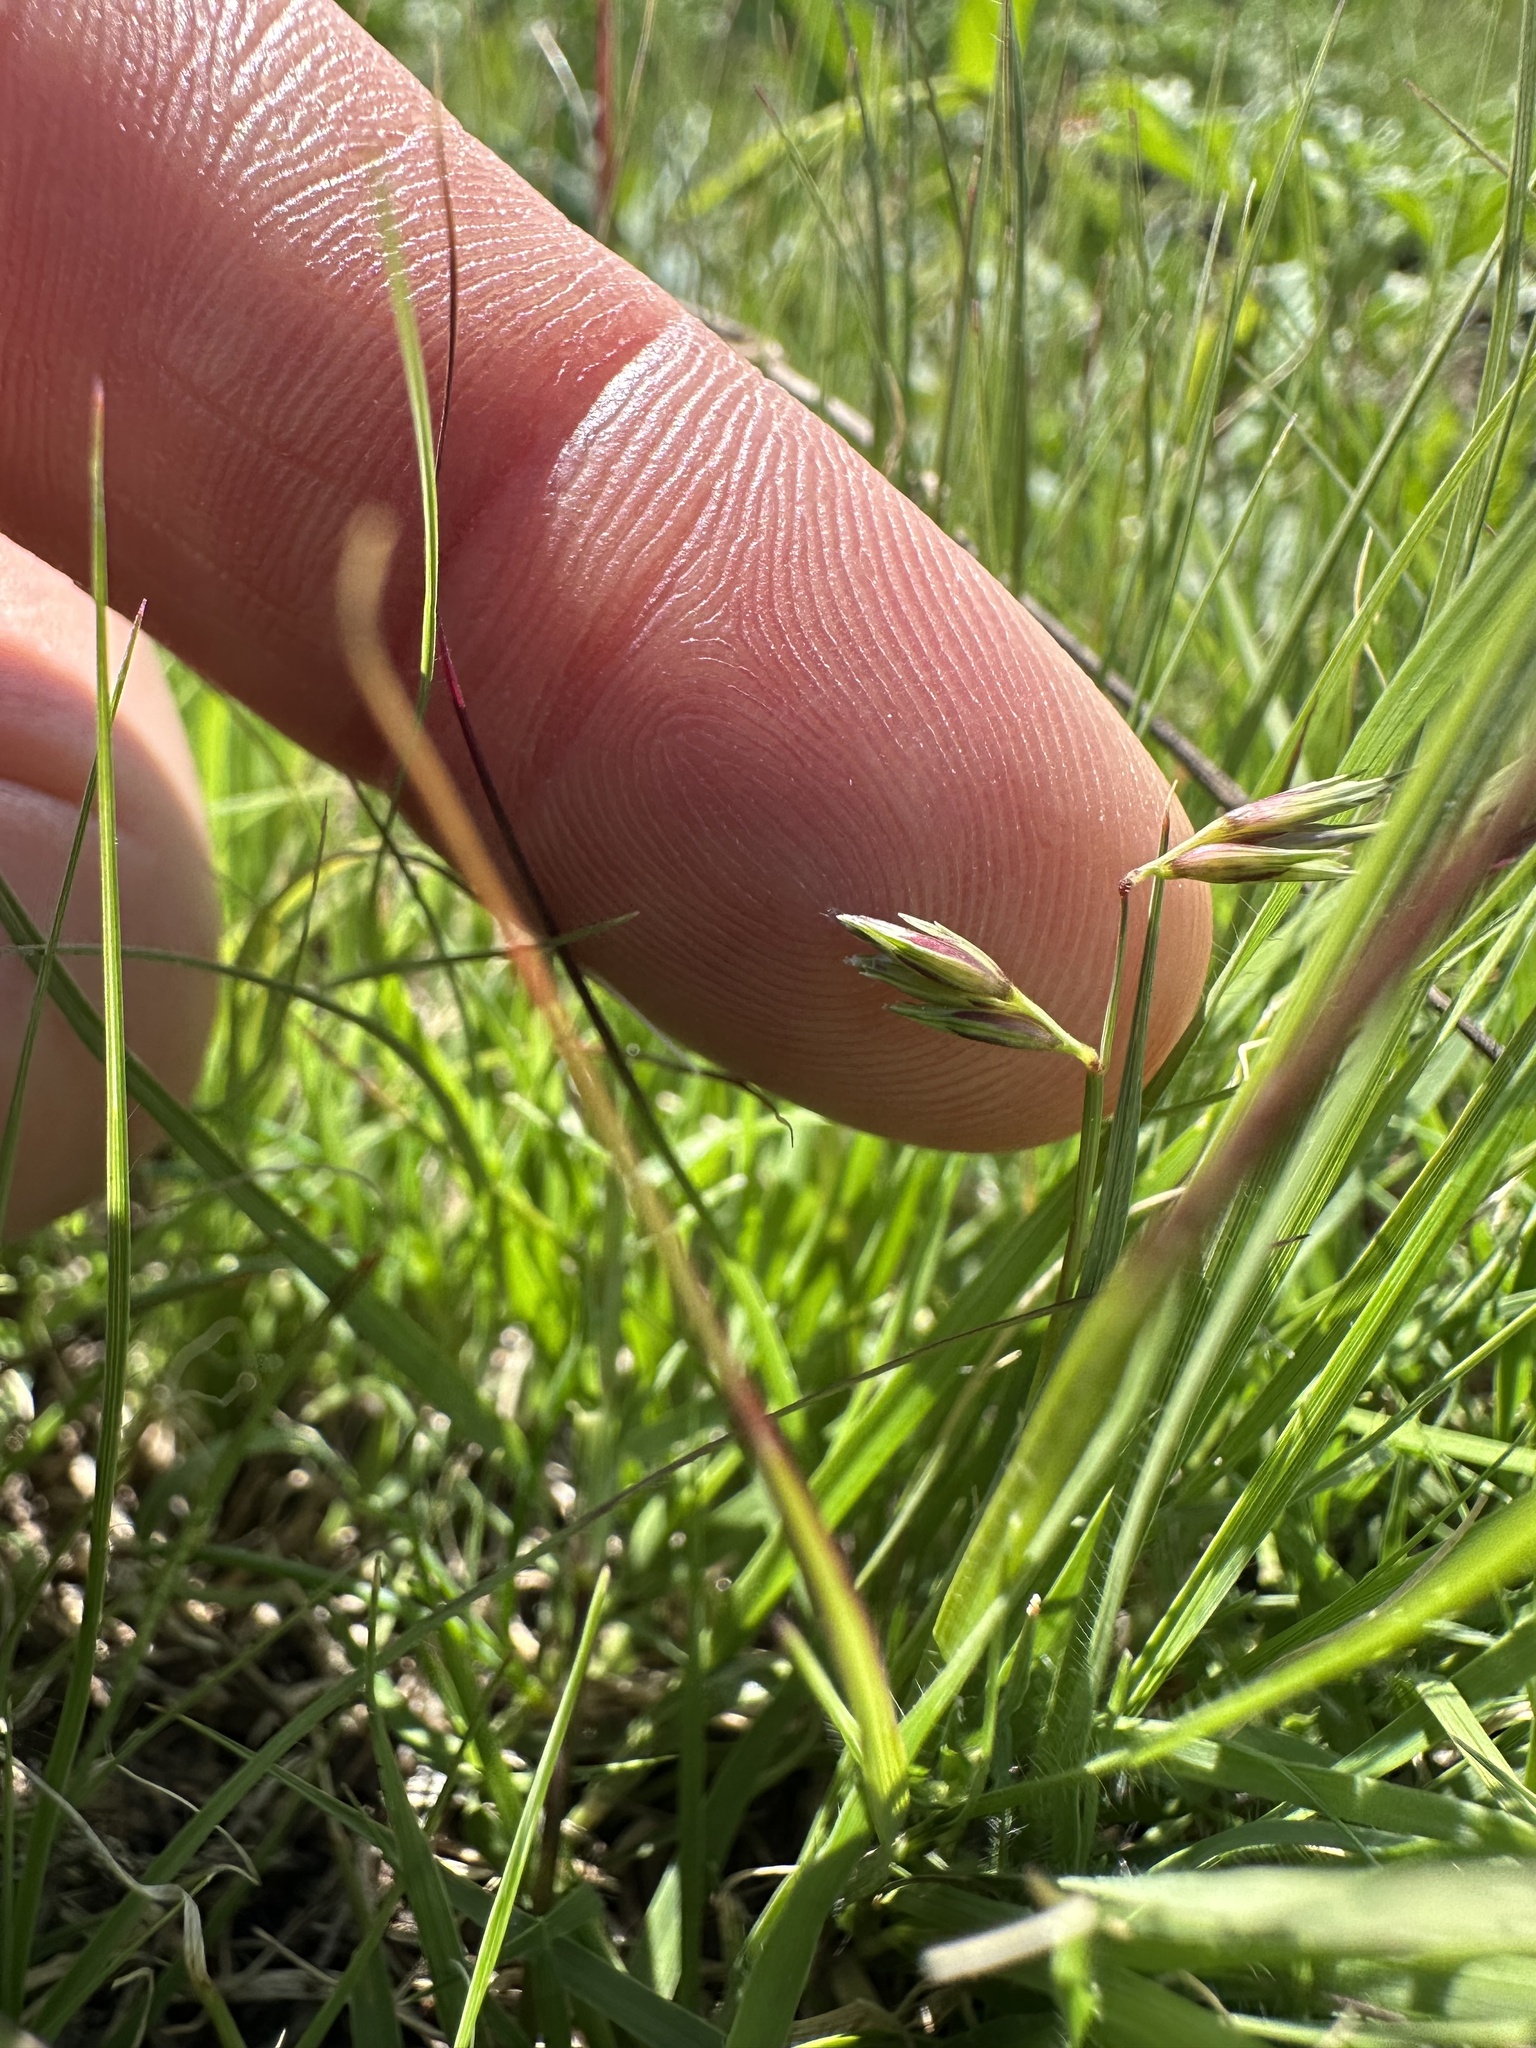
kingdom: Plantae
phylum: Tracheophyta
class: Liliopsida
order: Poales
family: Poaceae
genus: Bouteloua
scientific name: Bouteloua dactyloides
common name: Buffalo grass
